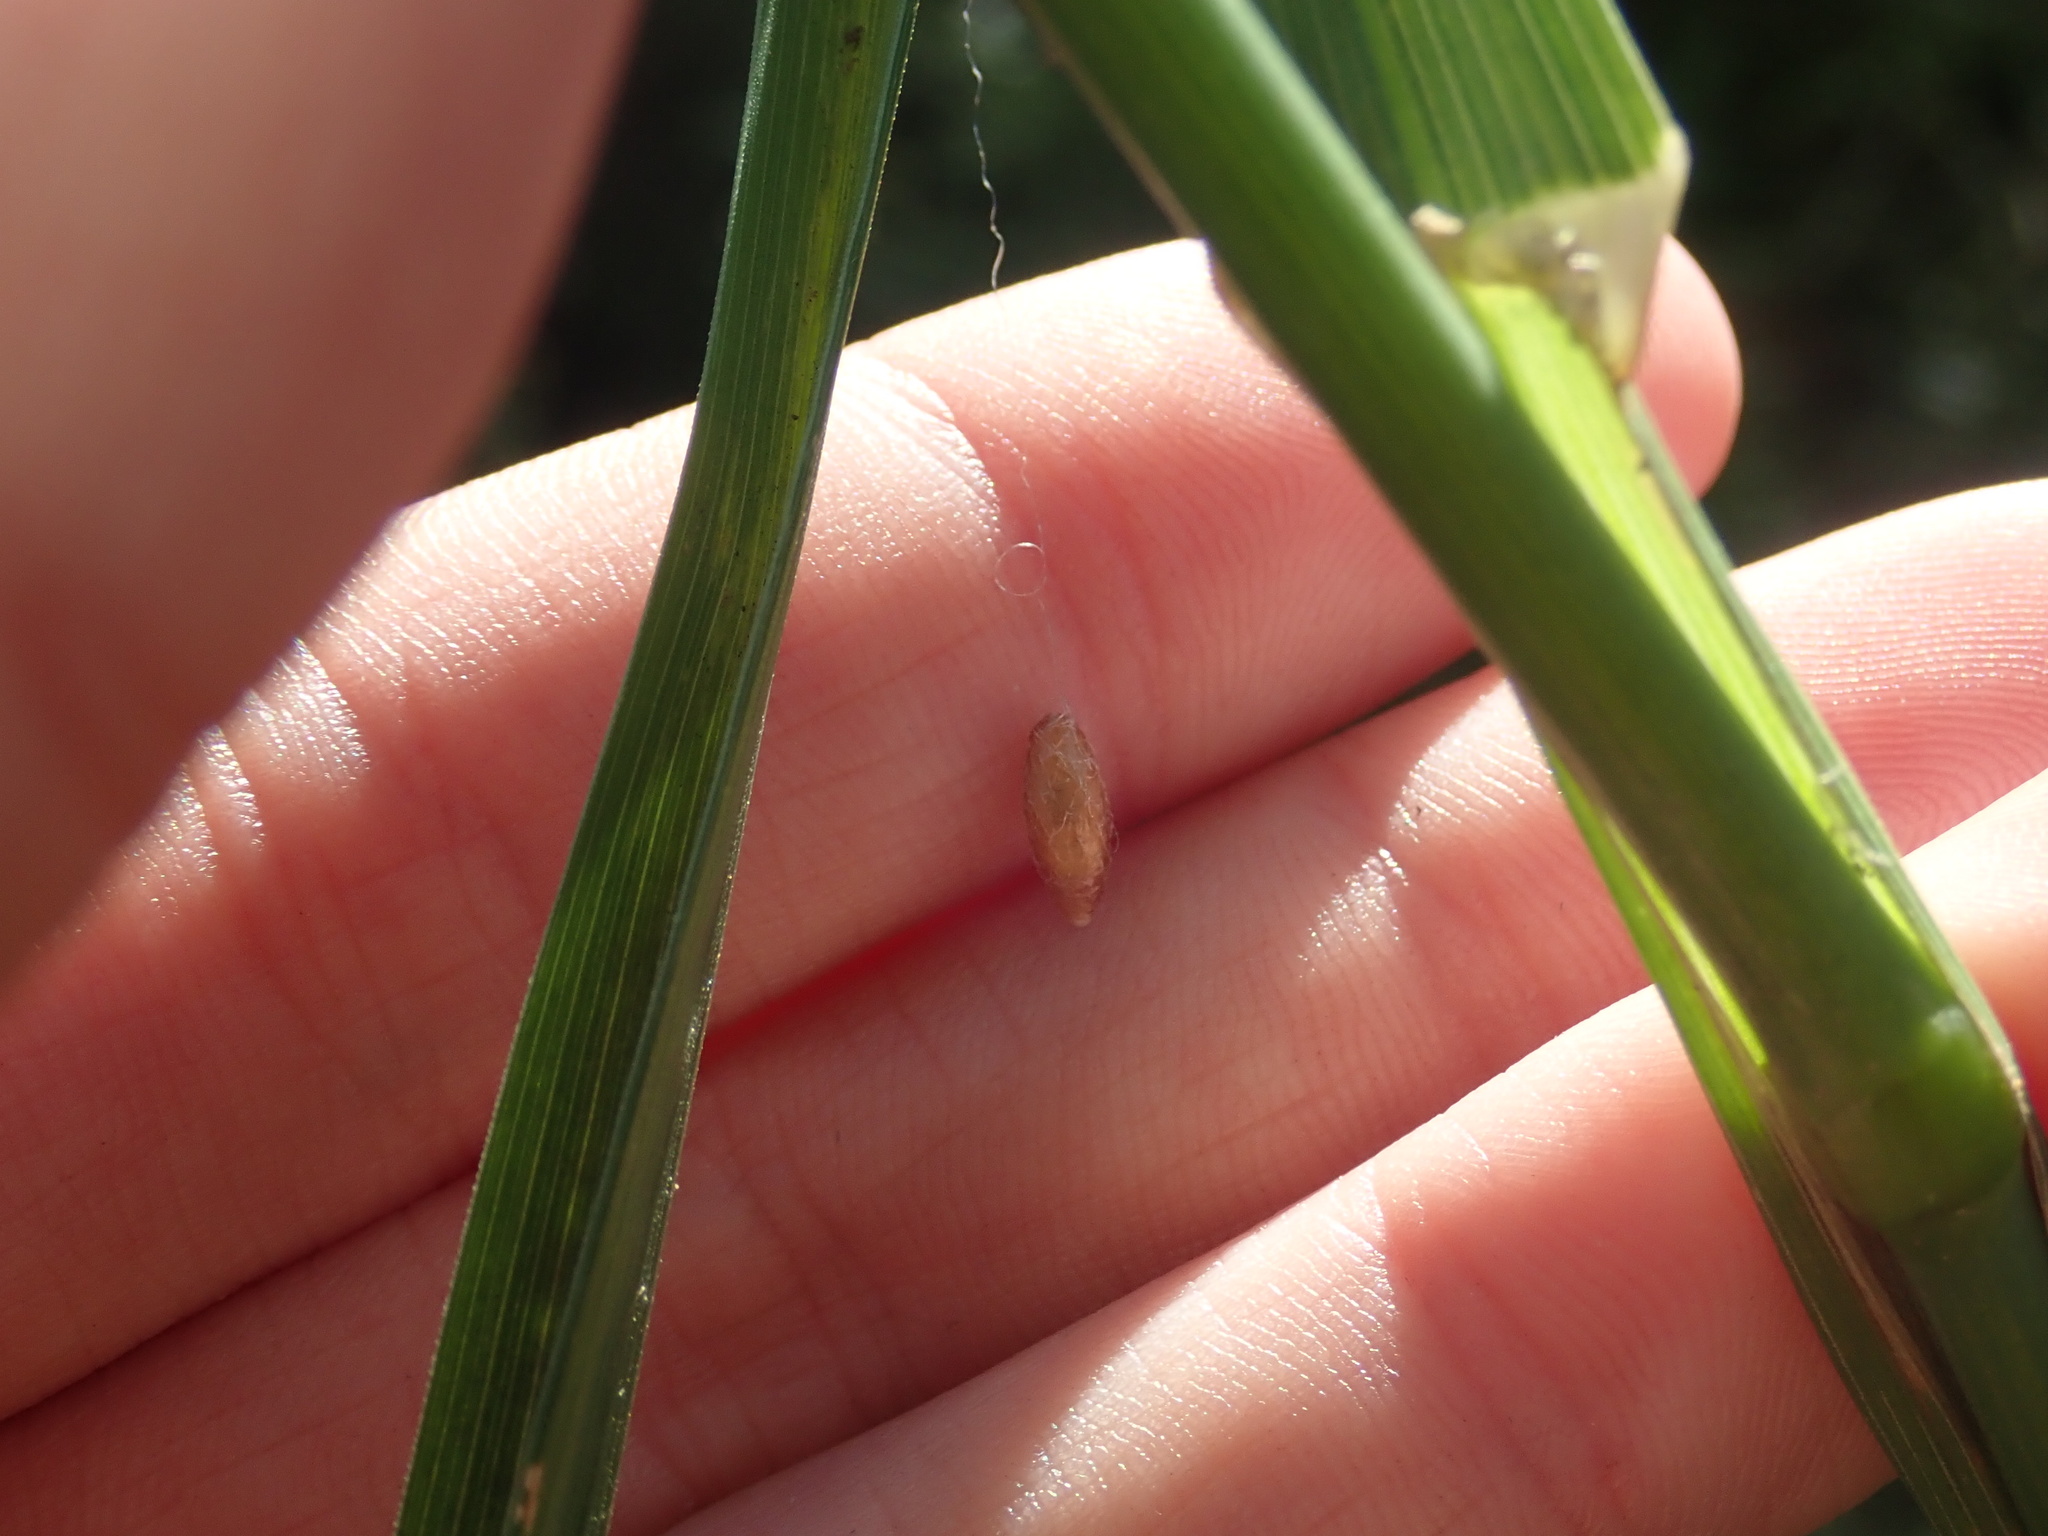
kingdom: Animalia
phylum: Arthropoda
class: Insecta
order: Hymenoptera
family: Braconidae
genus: Meteorus
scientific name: Meteorus pulchricornis
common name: Braconid wasp
